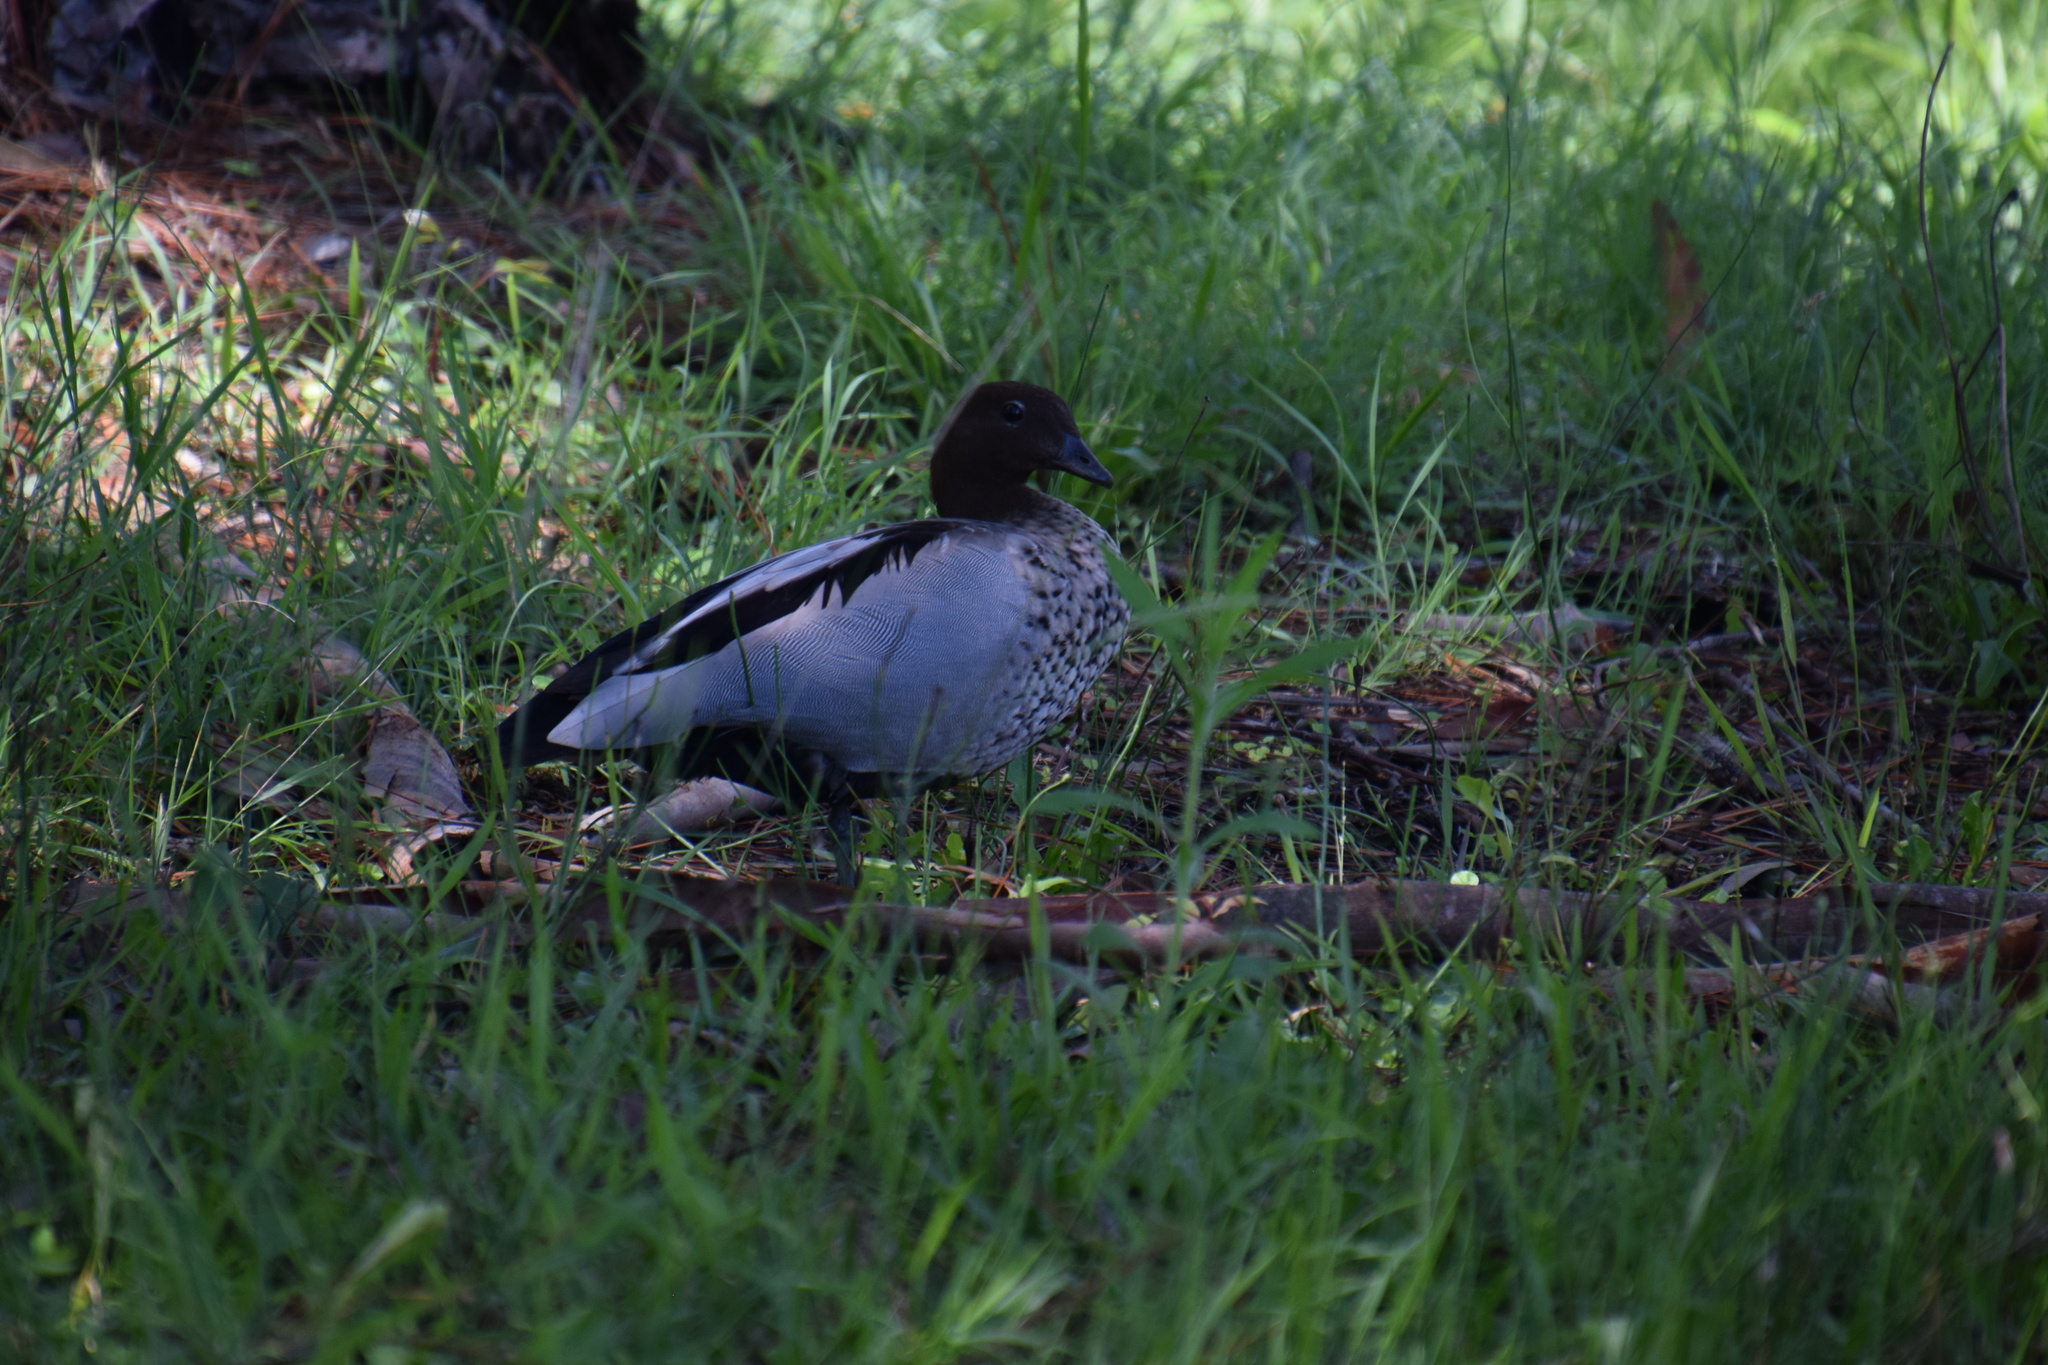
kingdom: Animalia
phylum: Chordata
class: Aves
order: Anseriformes
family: Anatidae
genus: Chenonetta
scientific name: Chenonetta jubata
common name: Maned duck
